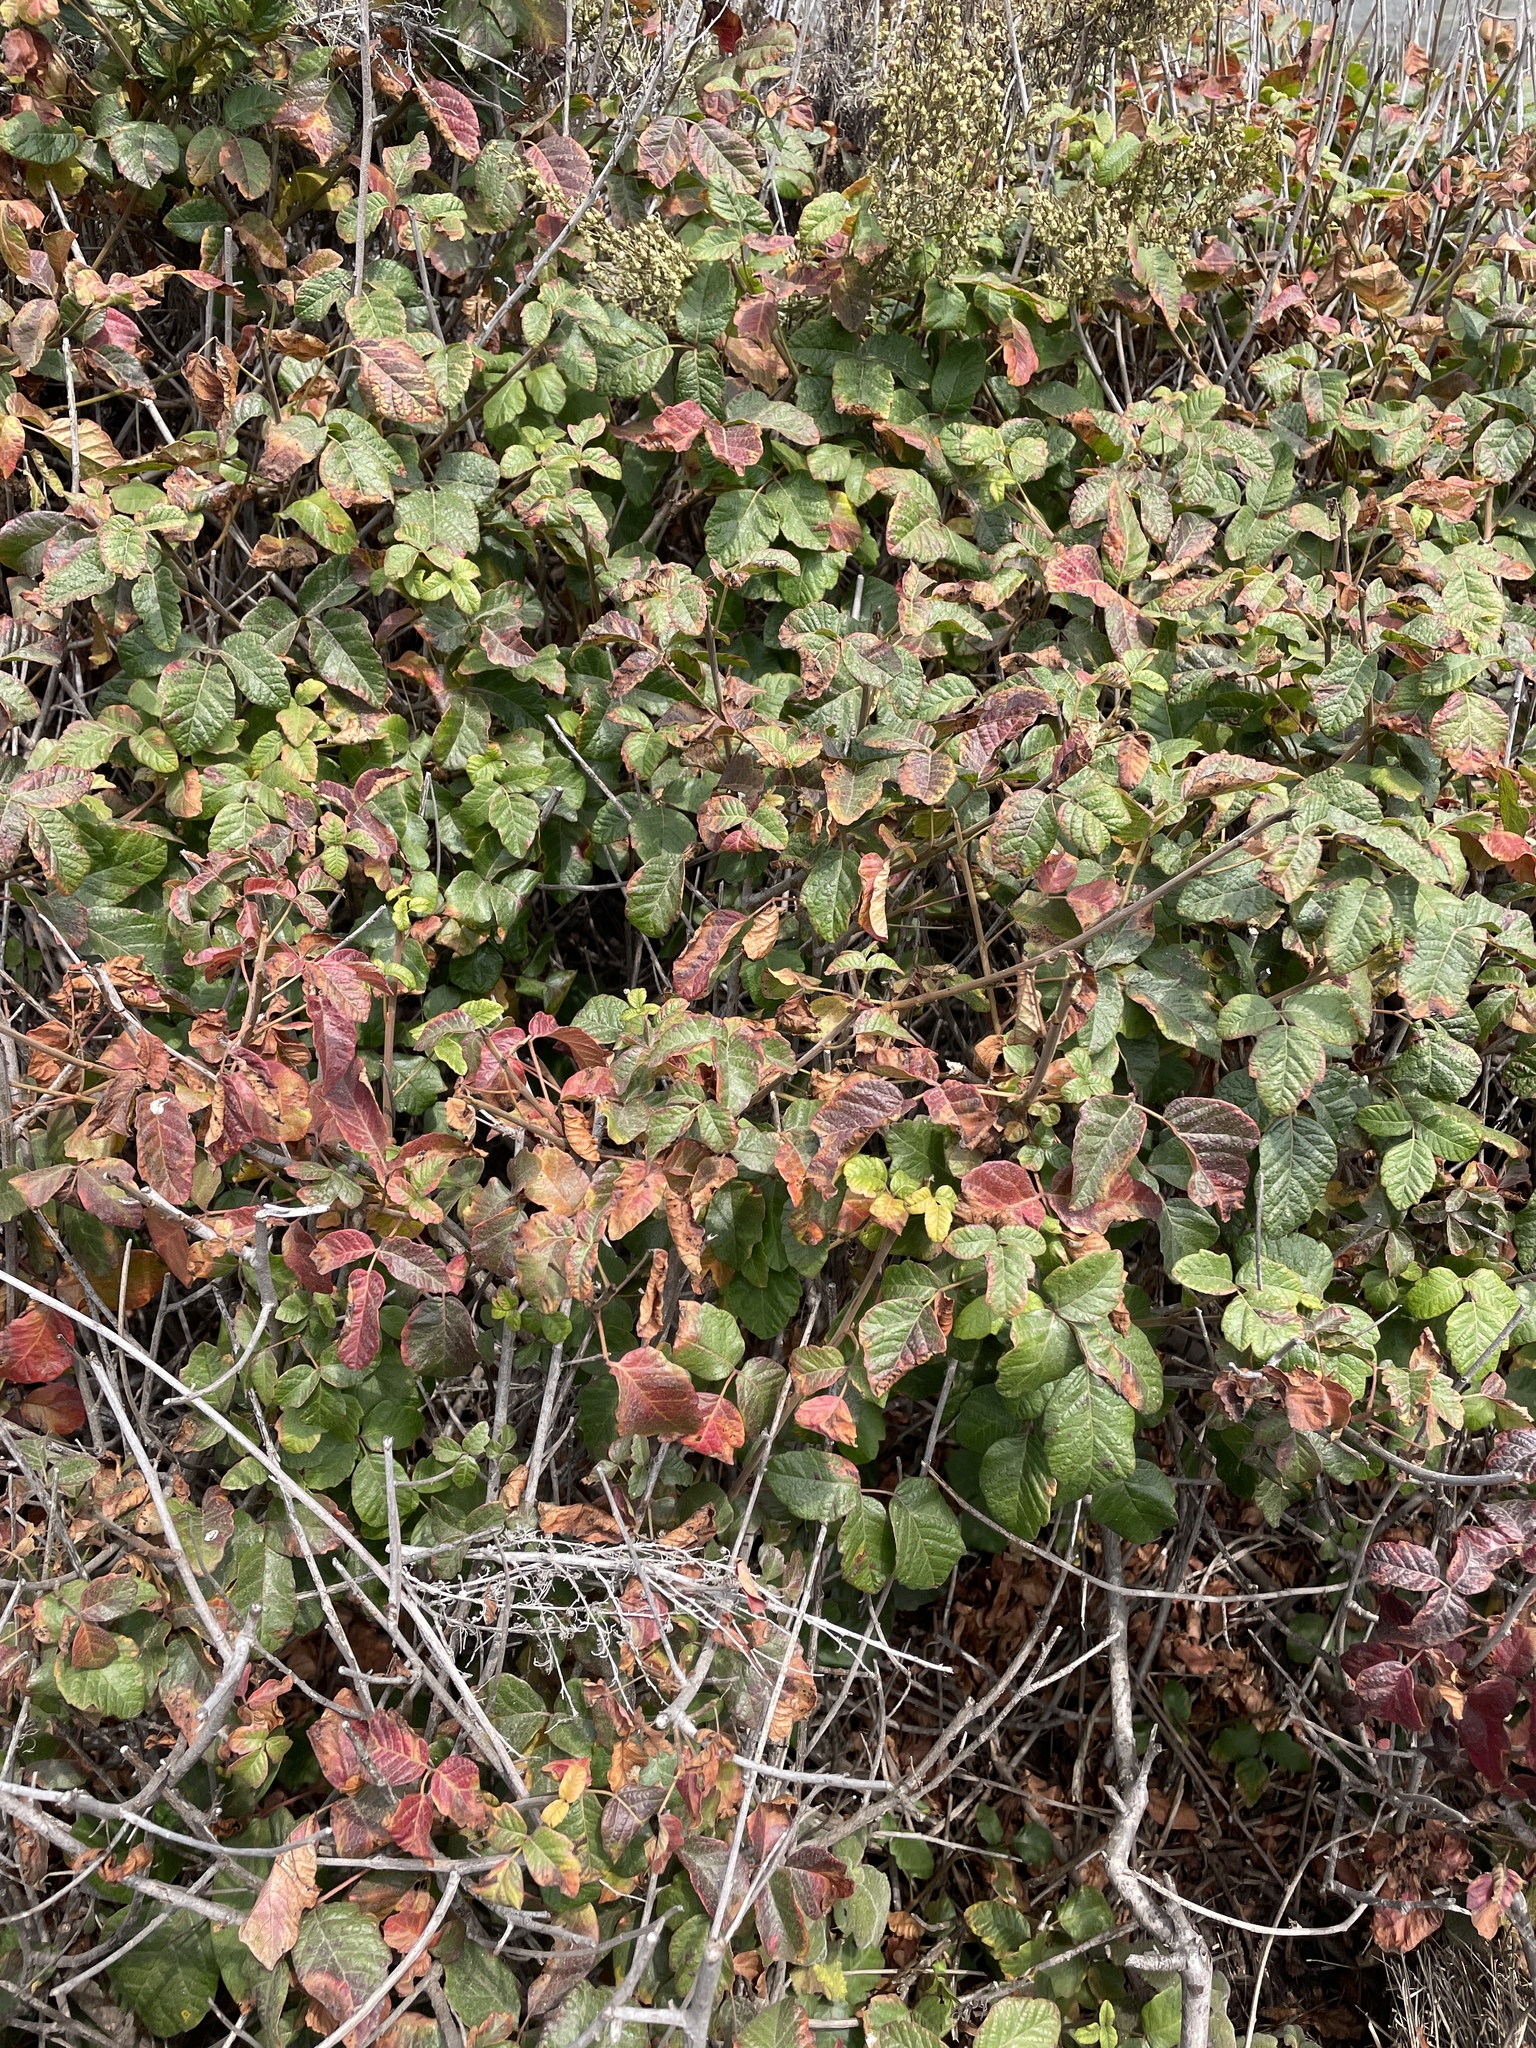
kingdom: Plantae
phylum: Tracheophyta
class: Magnoliopsida
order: Sapindales
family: Anacardiaceae
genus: Toxicodendron
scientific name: Toxicodendron diversilobum
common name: Pacific poison-oak
